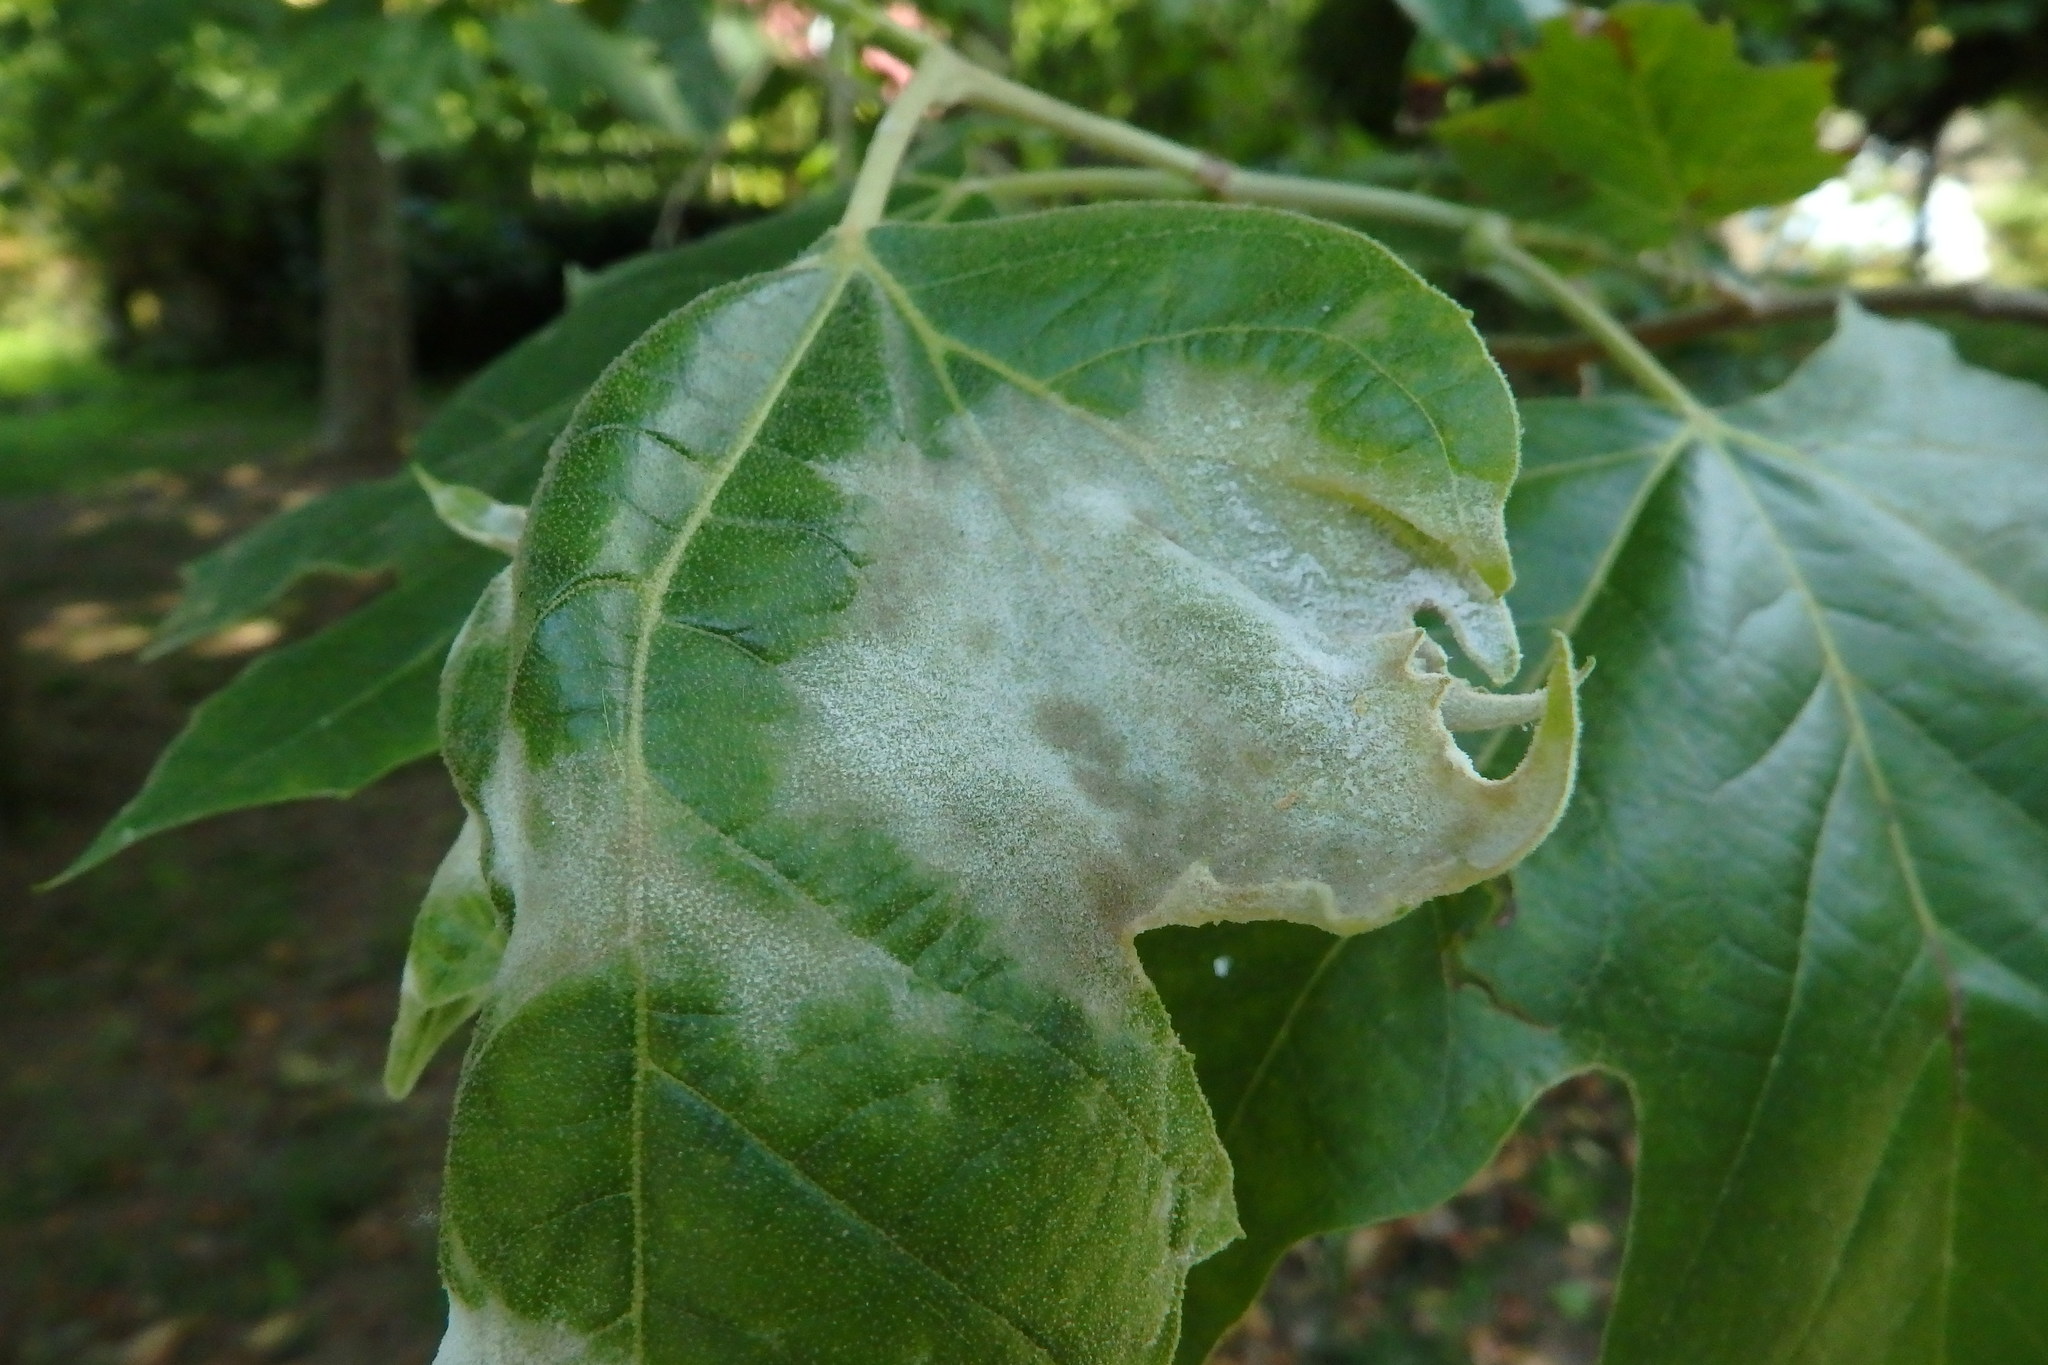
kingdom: Fungi
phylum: Ascomycota
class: Leotiomycetes
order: Helotiales
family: Erysiphaceae
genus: Erysiphe
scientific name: Erysiphe platani
